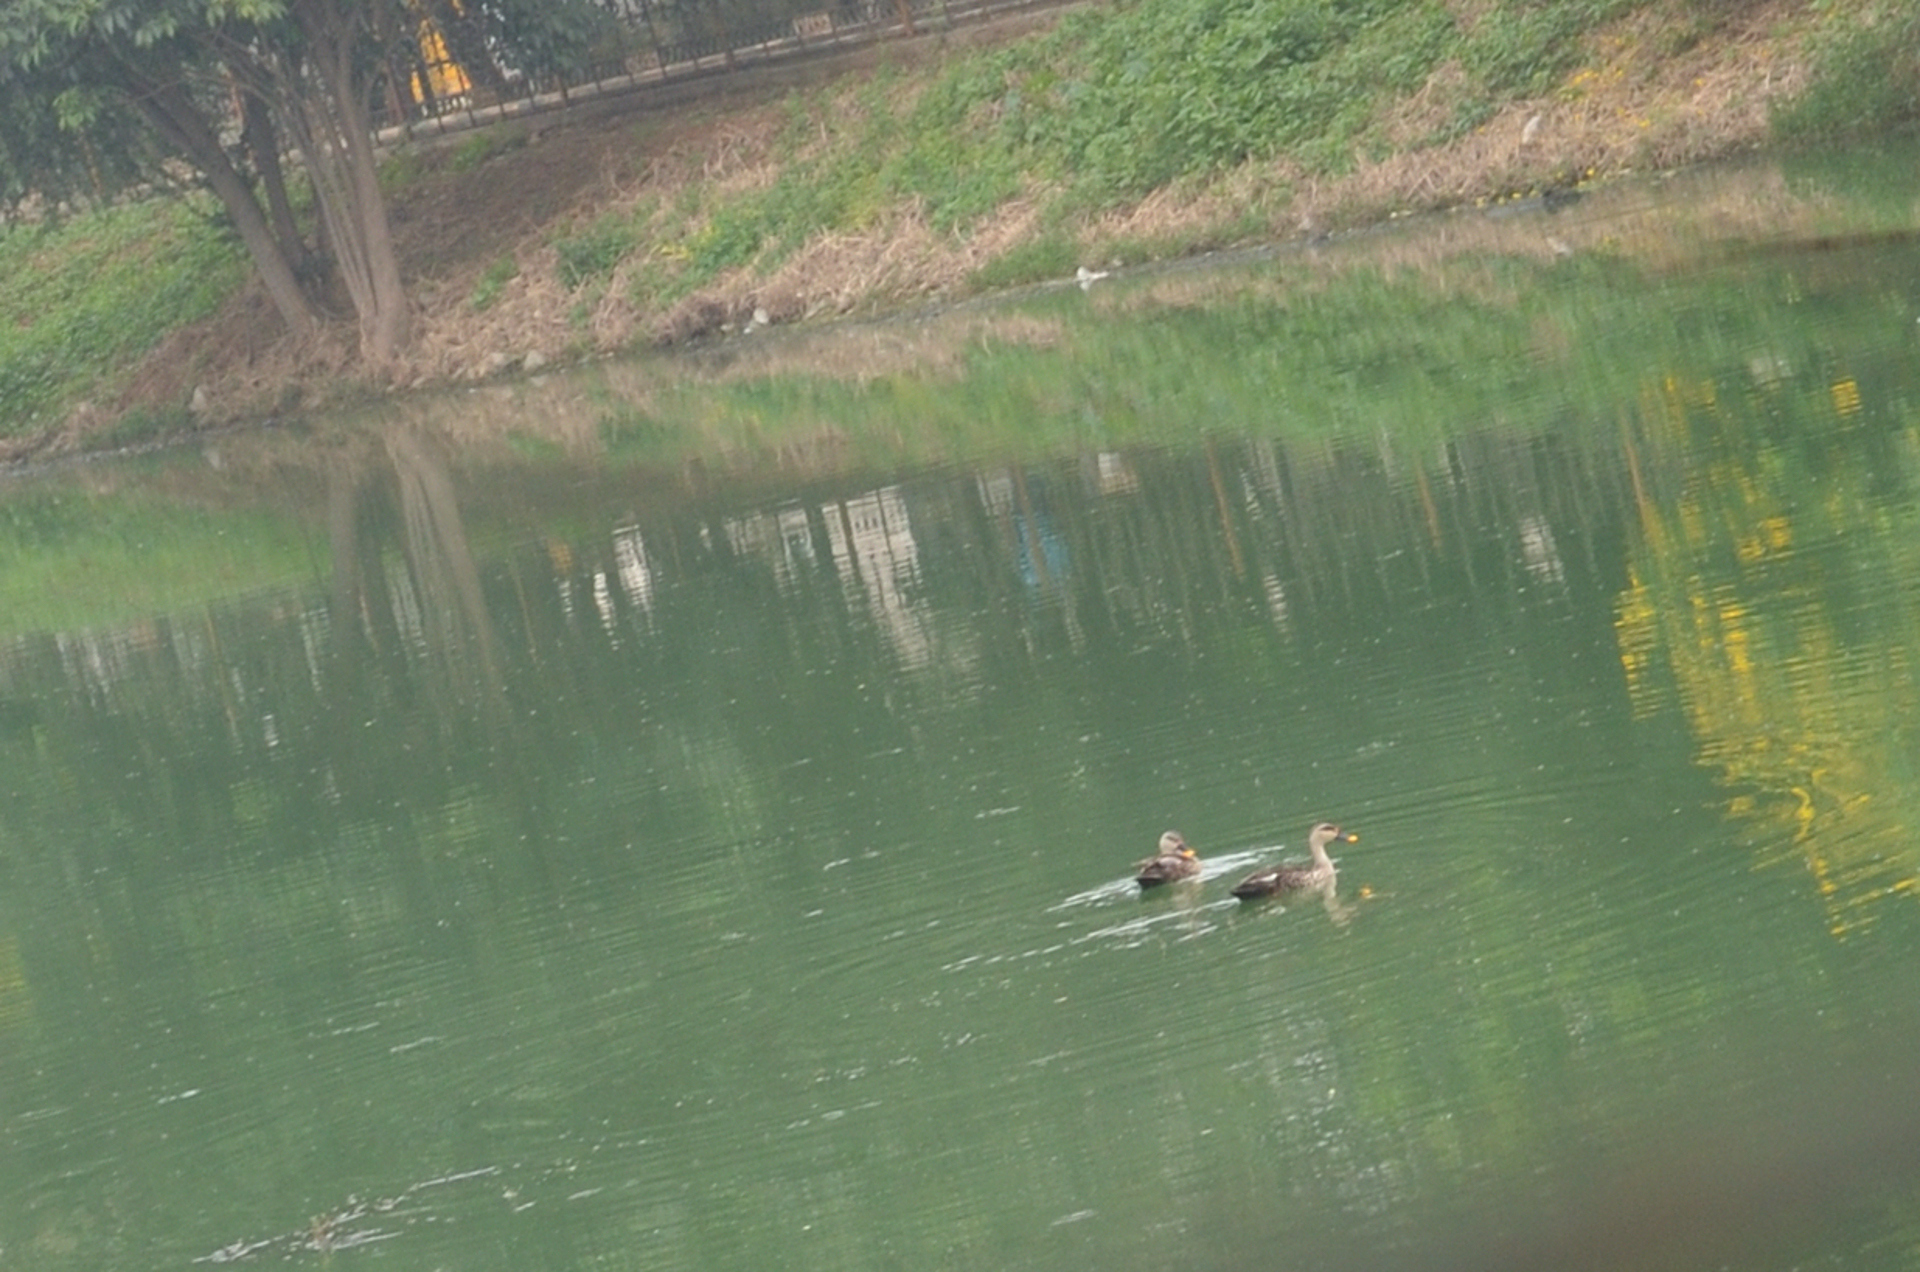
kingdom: Animalia
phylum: Chordata
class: Aves
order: Anseriformes
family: Anatidae
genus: Anas
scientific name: Anas poecilorhyncha
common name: Indian spot-billed duck
